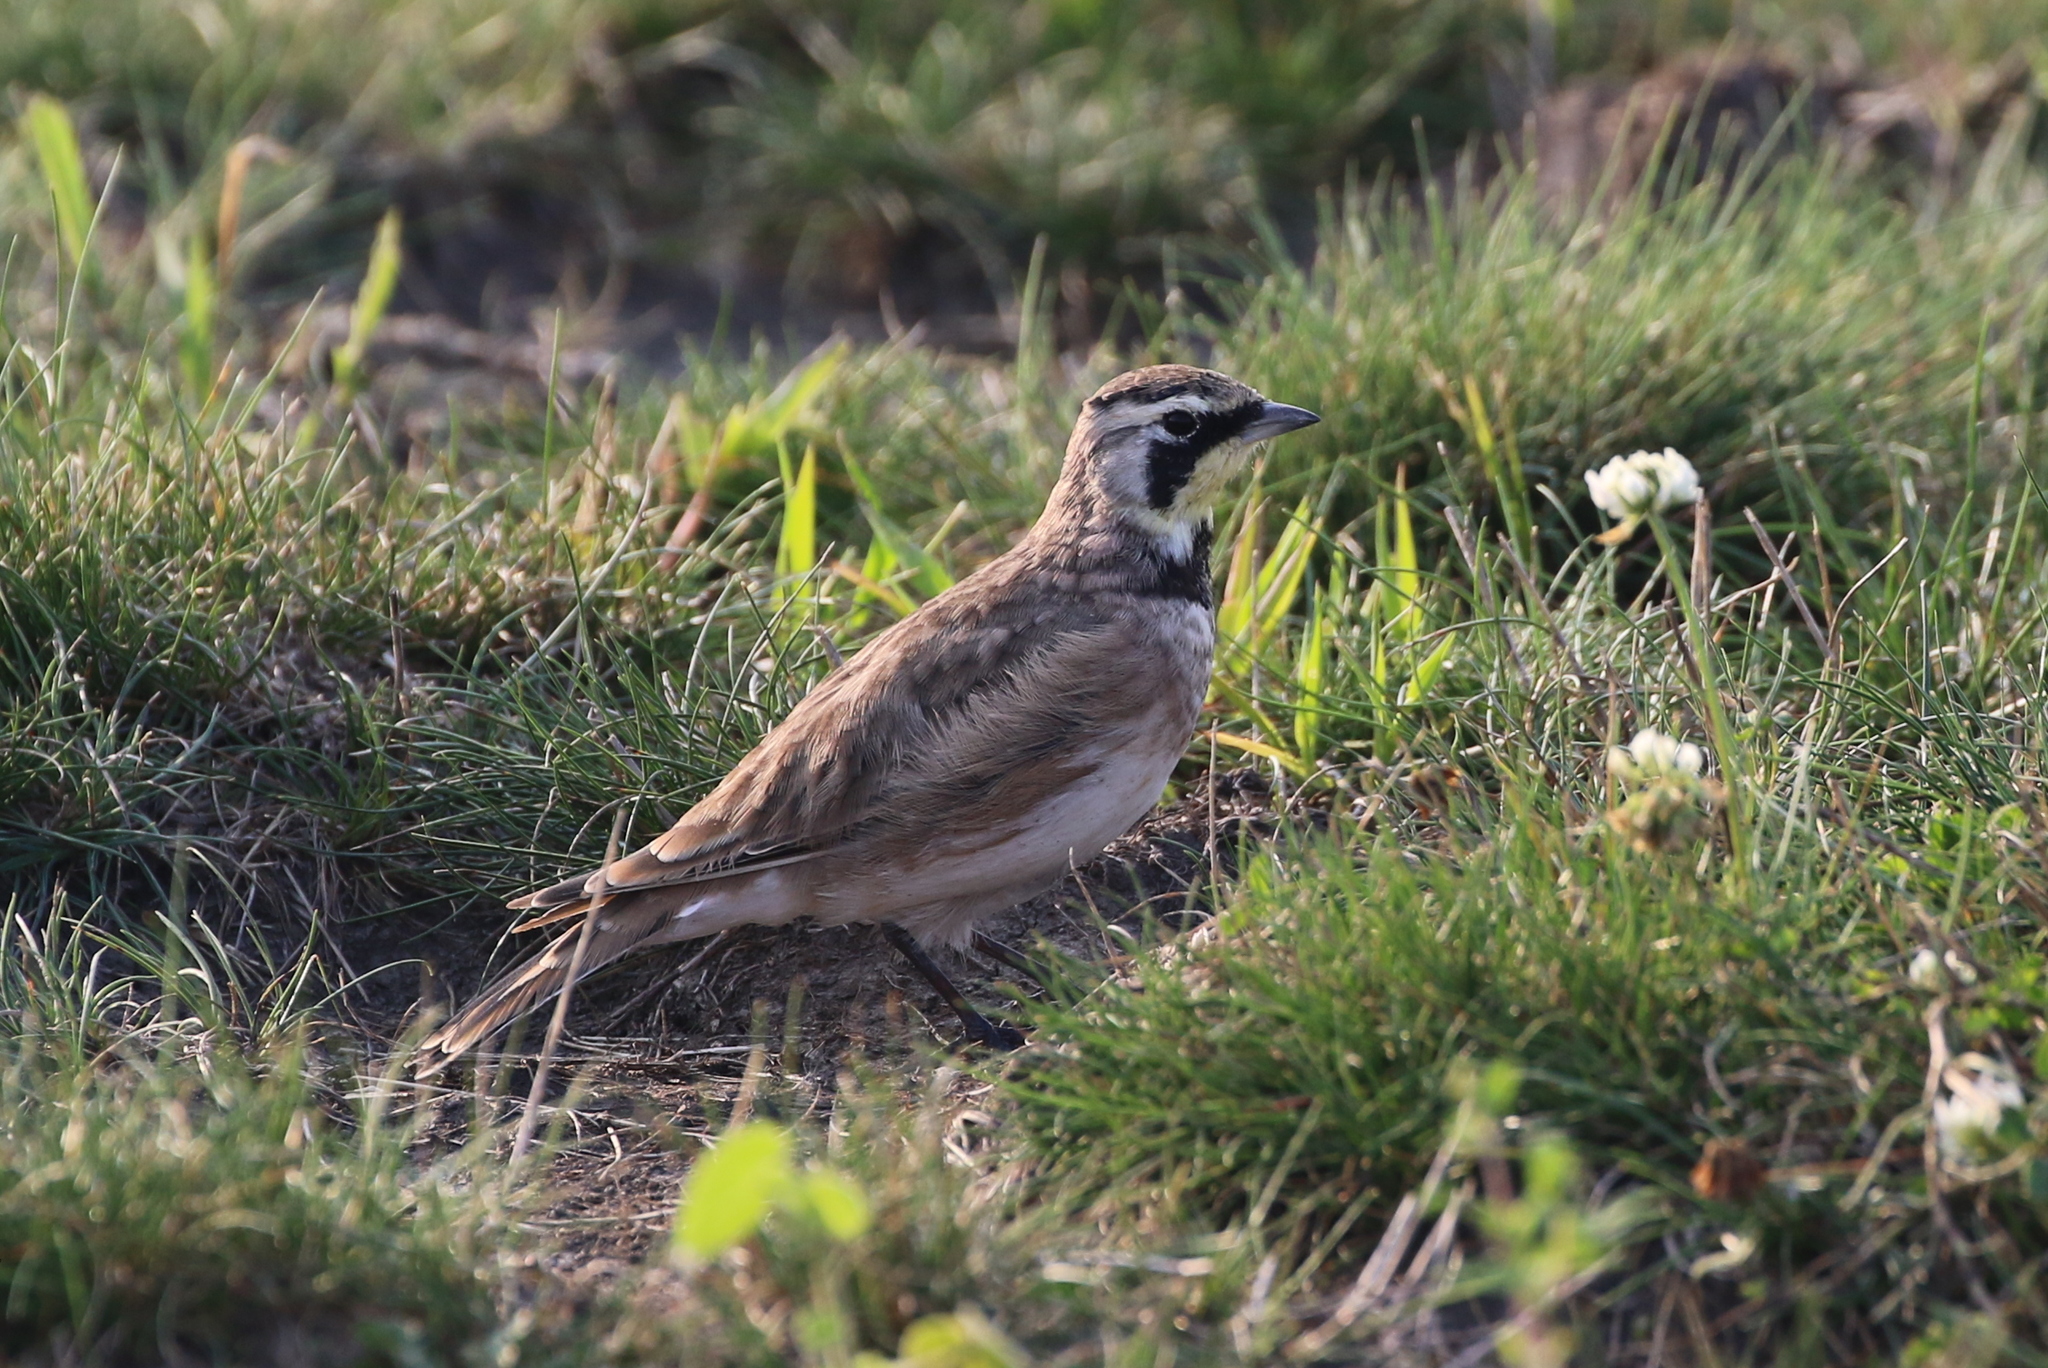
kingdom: Animalia
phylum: Chordata
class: Aves
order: Passeriformes
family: Alaudidae
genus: Eremophila
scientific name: Eremophila alpestris
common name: Horned lark
